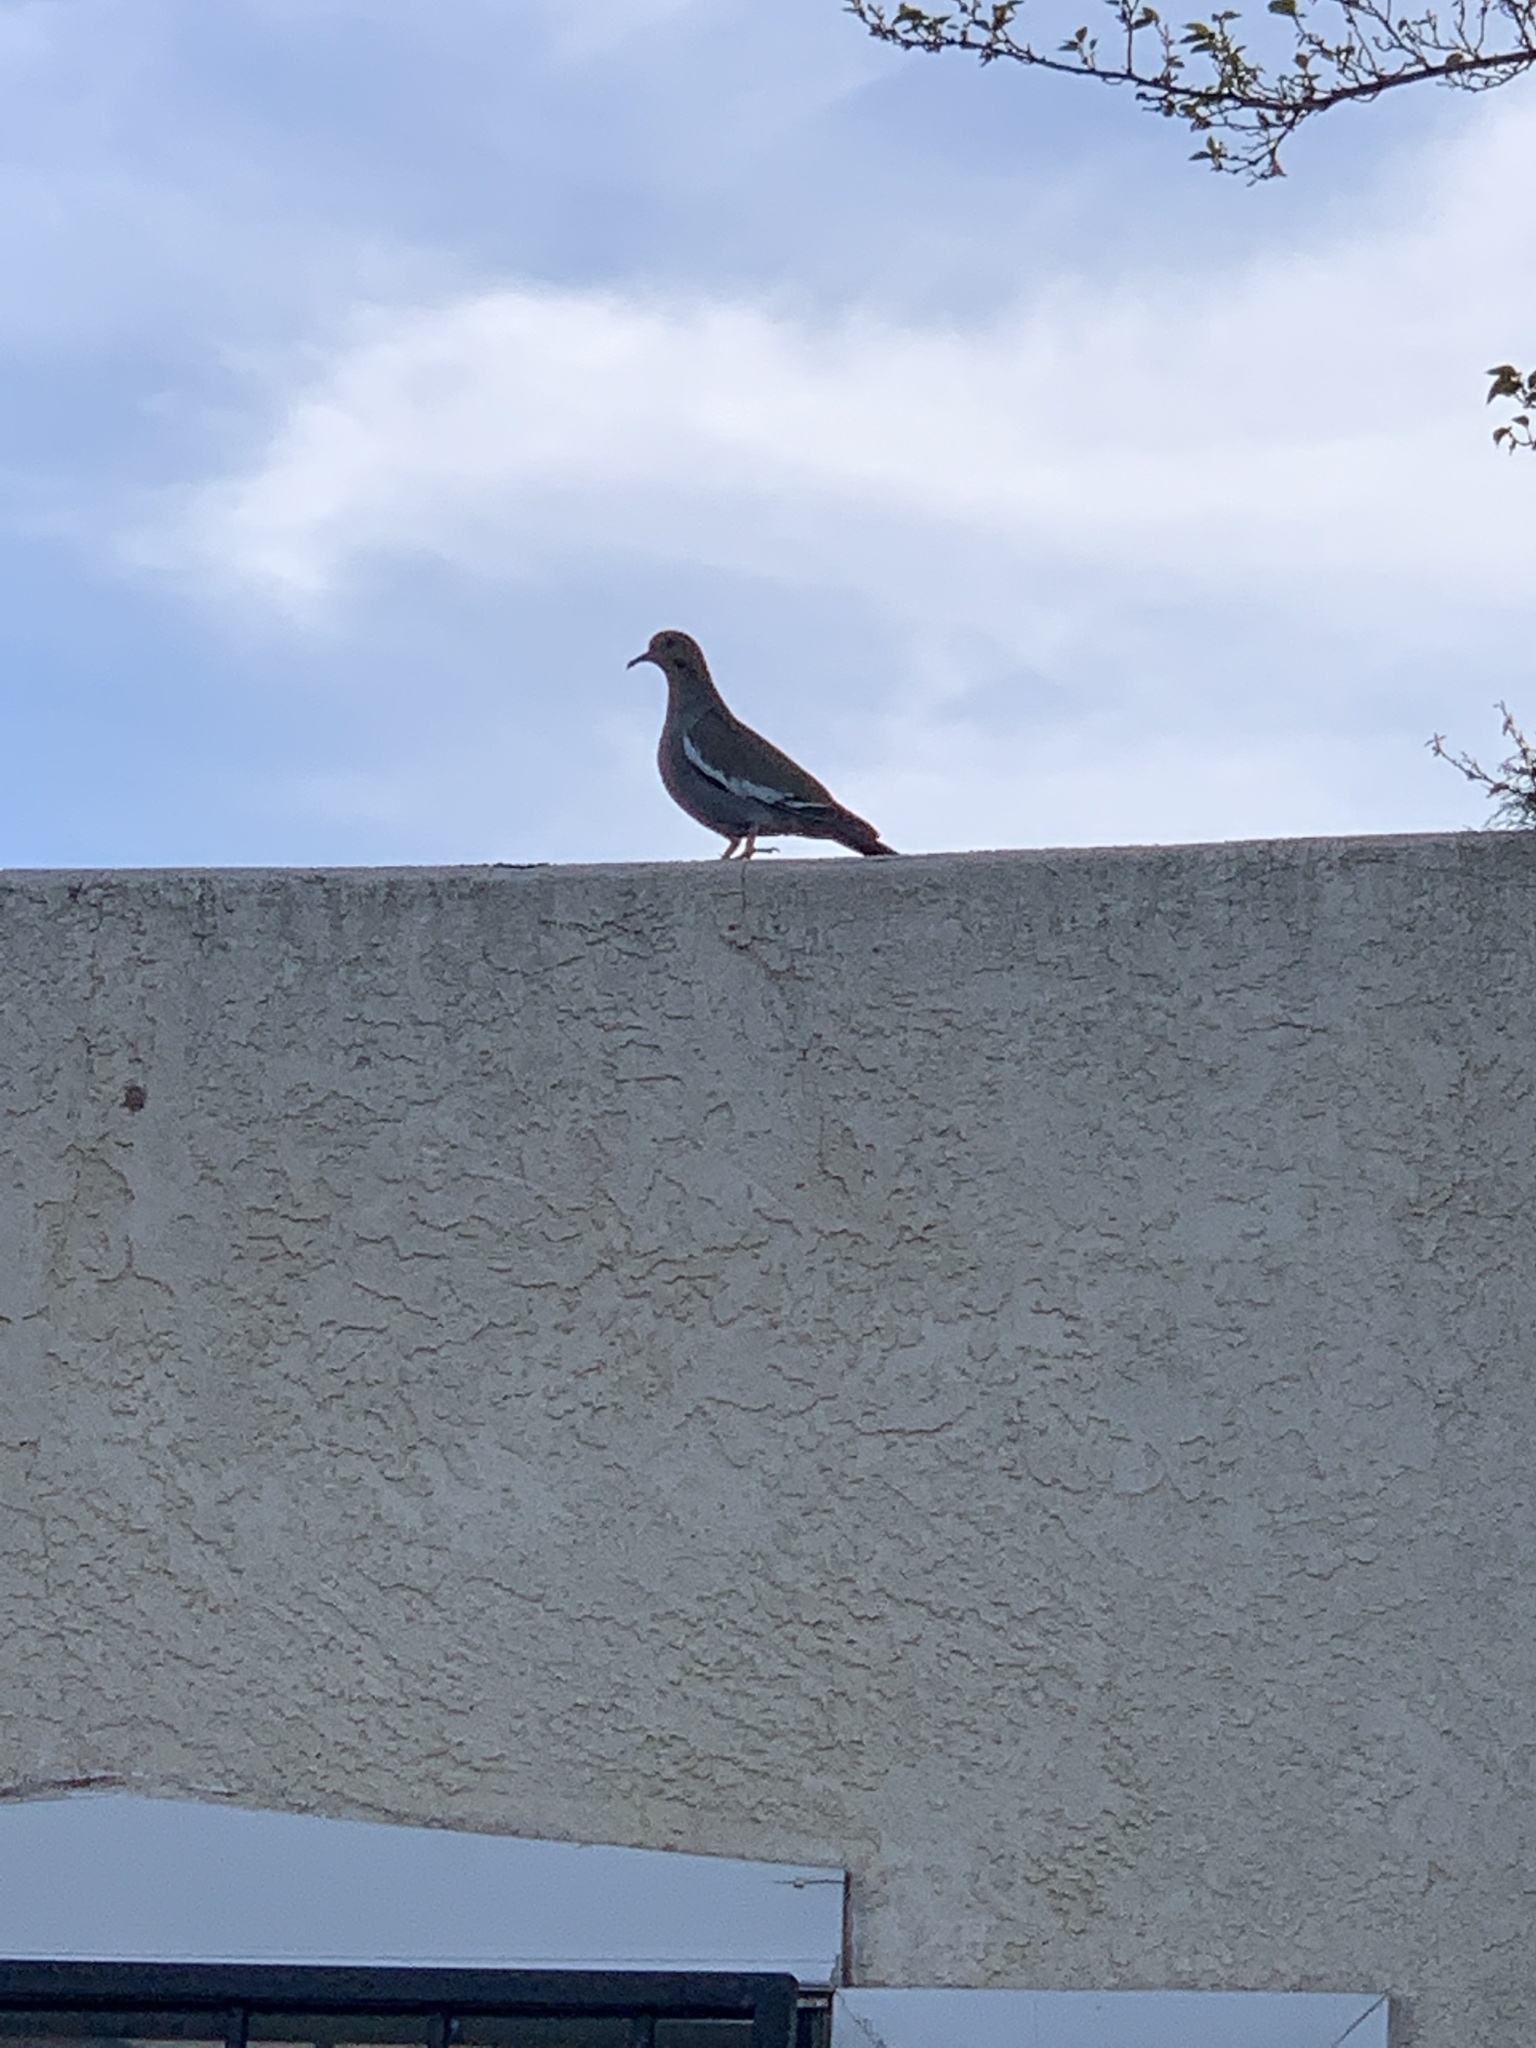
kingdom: Animalia
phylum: Chordata
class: Aves
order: Columbiformes
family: Columbidae
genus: Zenaida
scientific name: Zenaida asiatica
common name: White-winged dove
